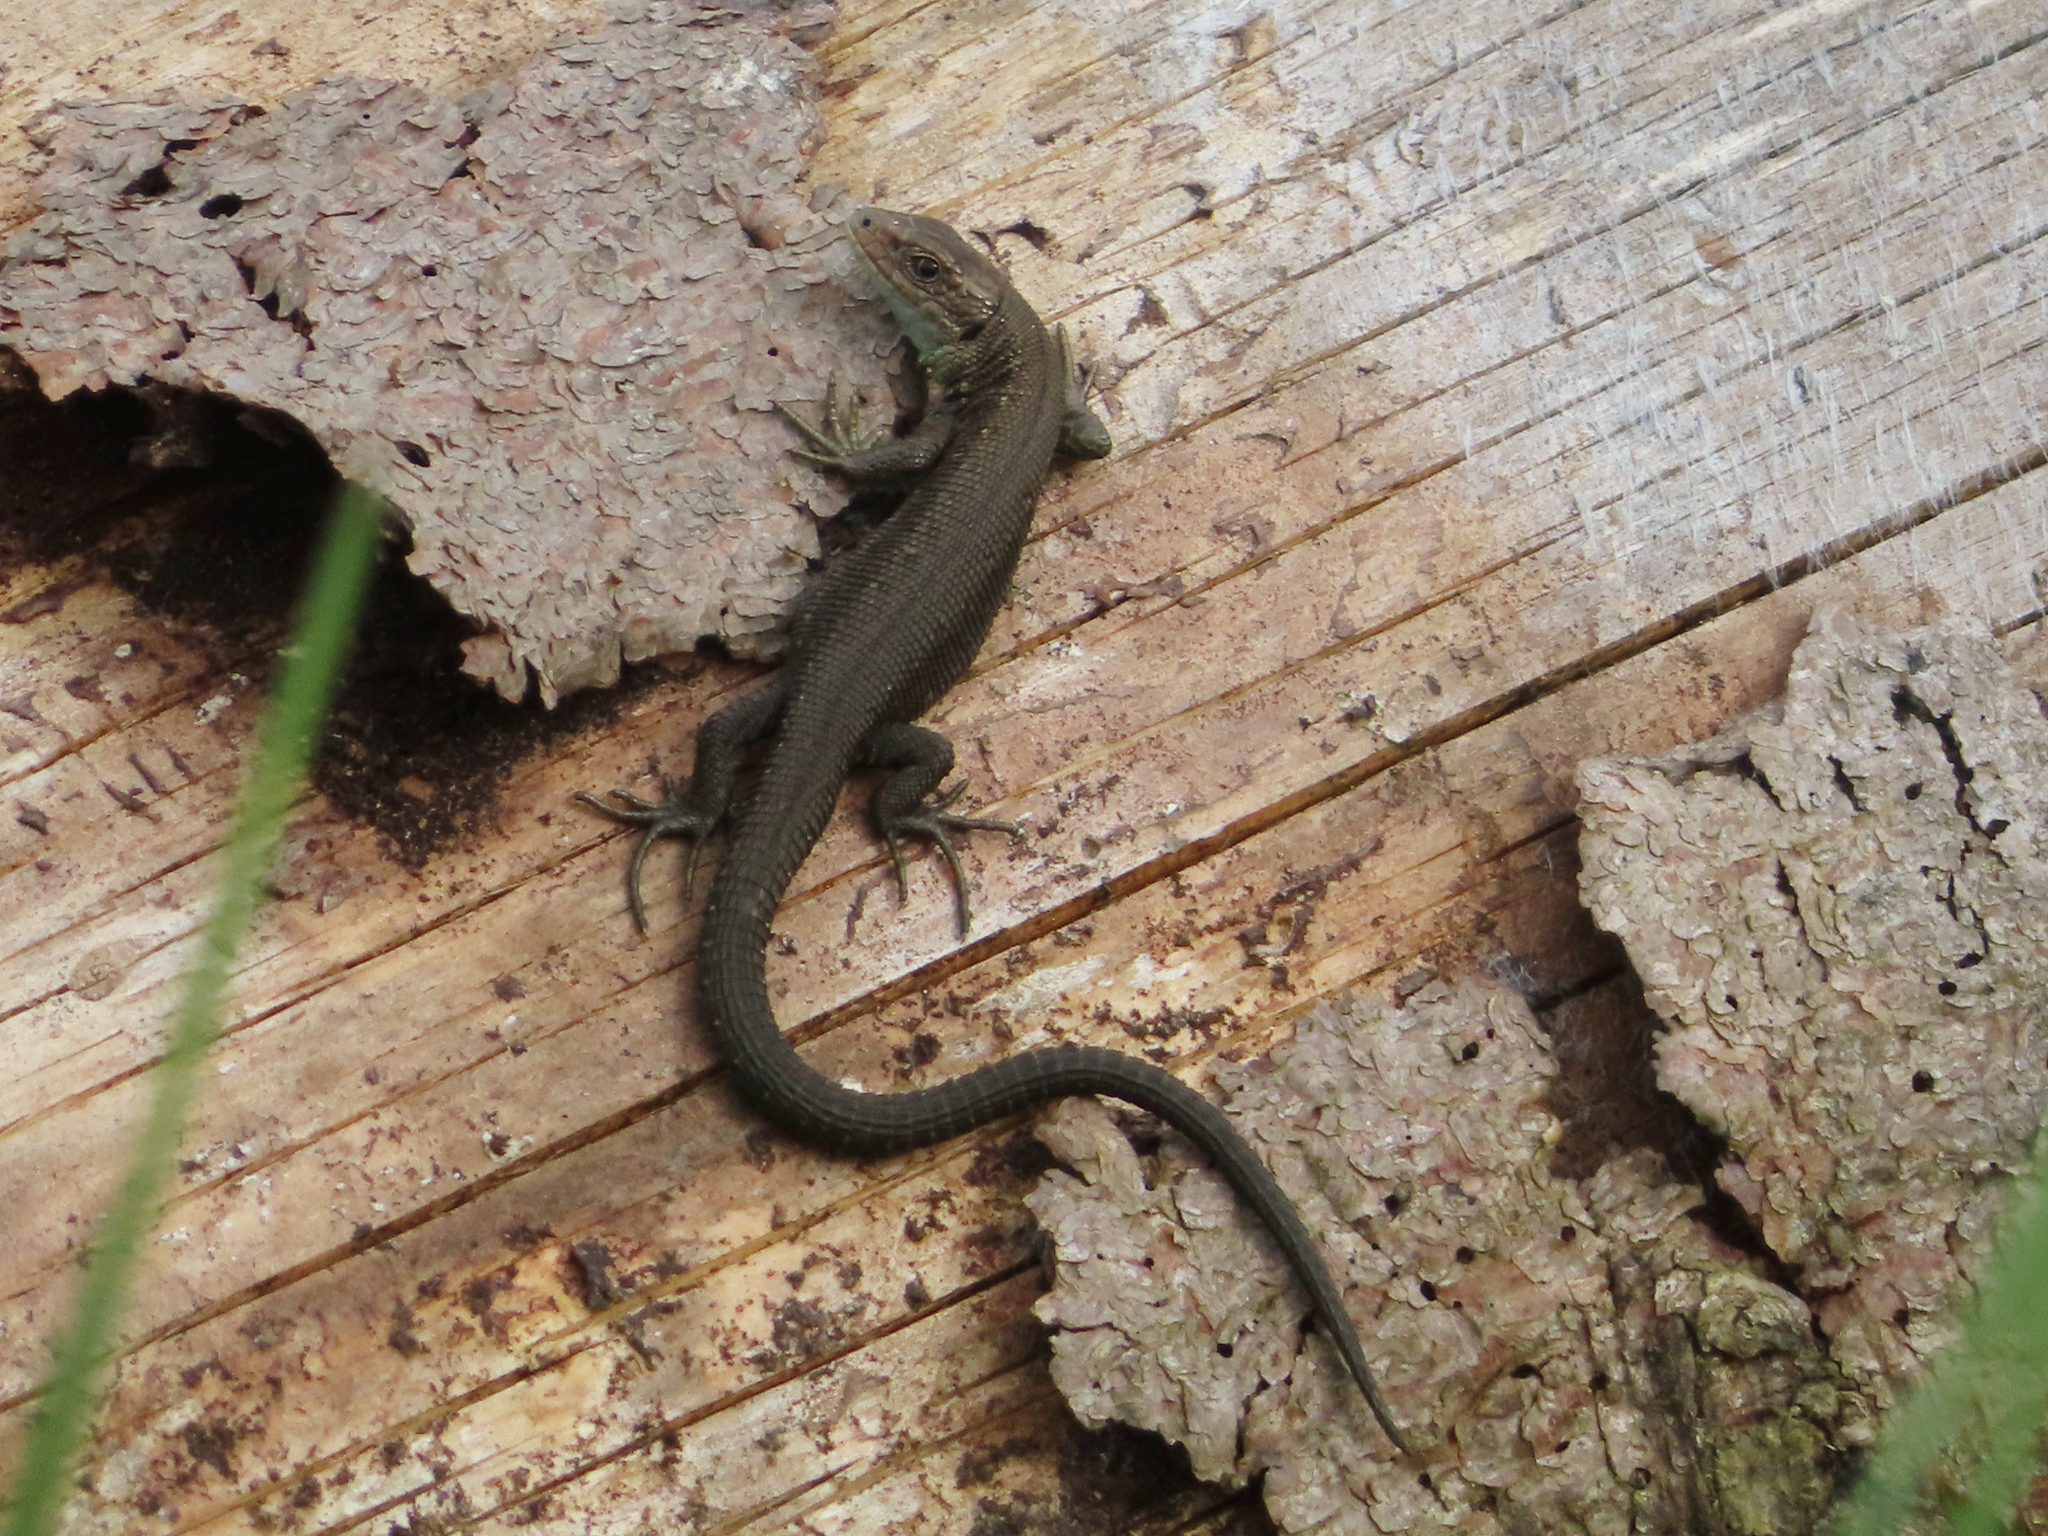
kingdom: Animalia
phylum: Chordata
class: Squamata
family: Lacertidae
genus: Zootoca
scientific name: Zootoca vivipara
